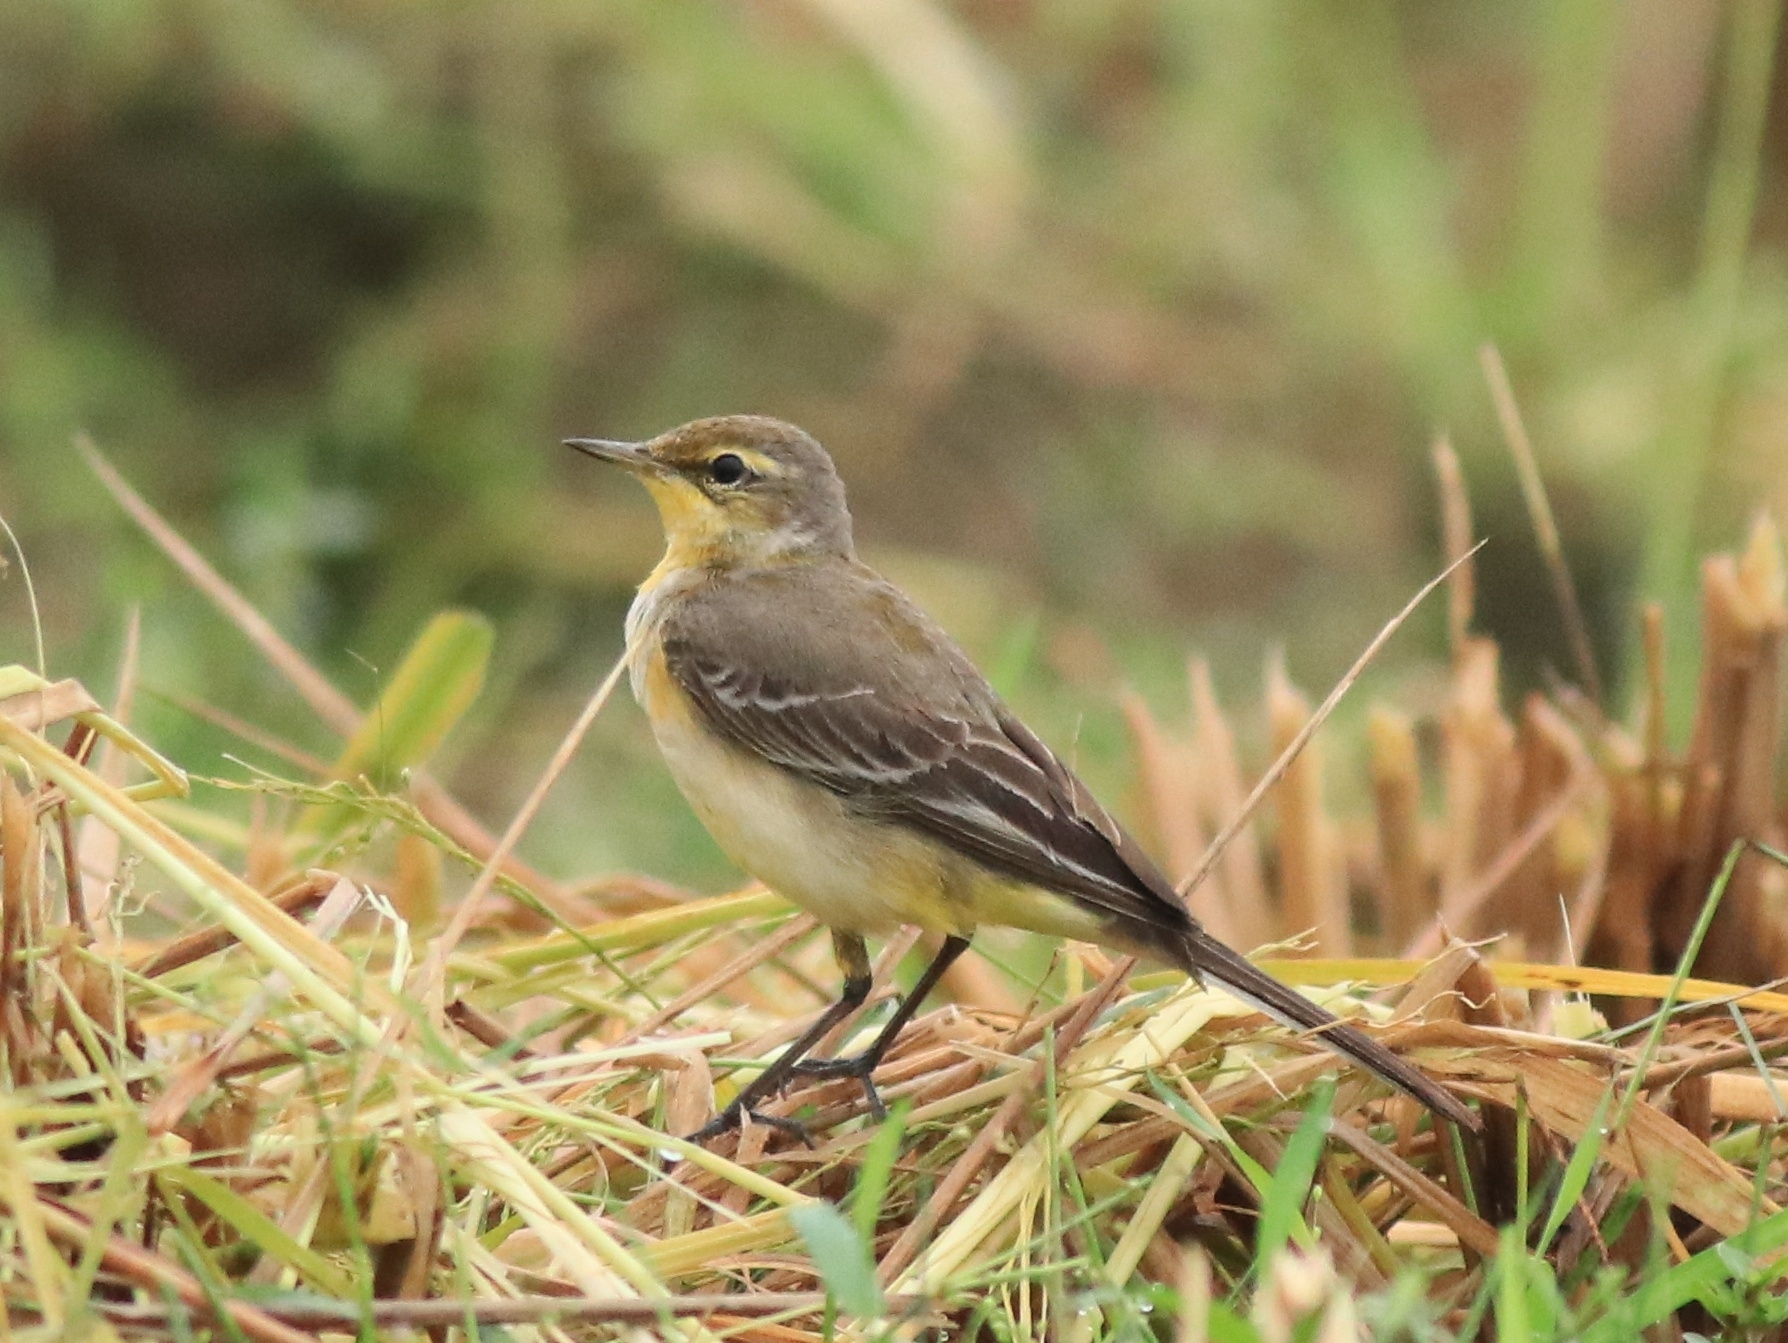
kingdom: Animalia
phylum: Chordata
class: Aves
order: Passeriformes
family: Motacillidae
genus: Motacilla
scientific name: Motacilla flava
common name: Western yellow wagtail
